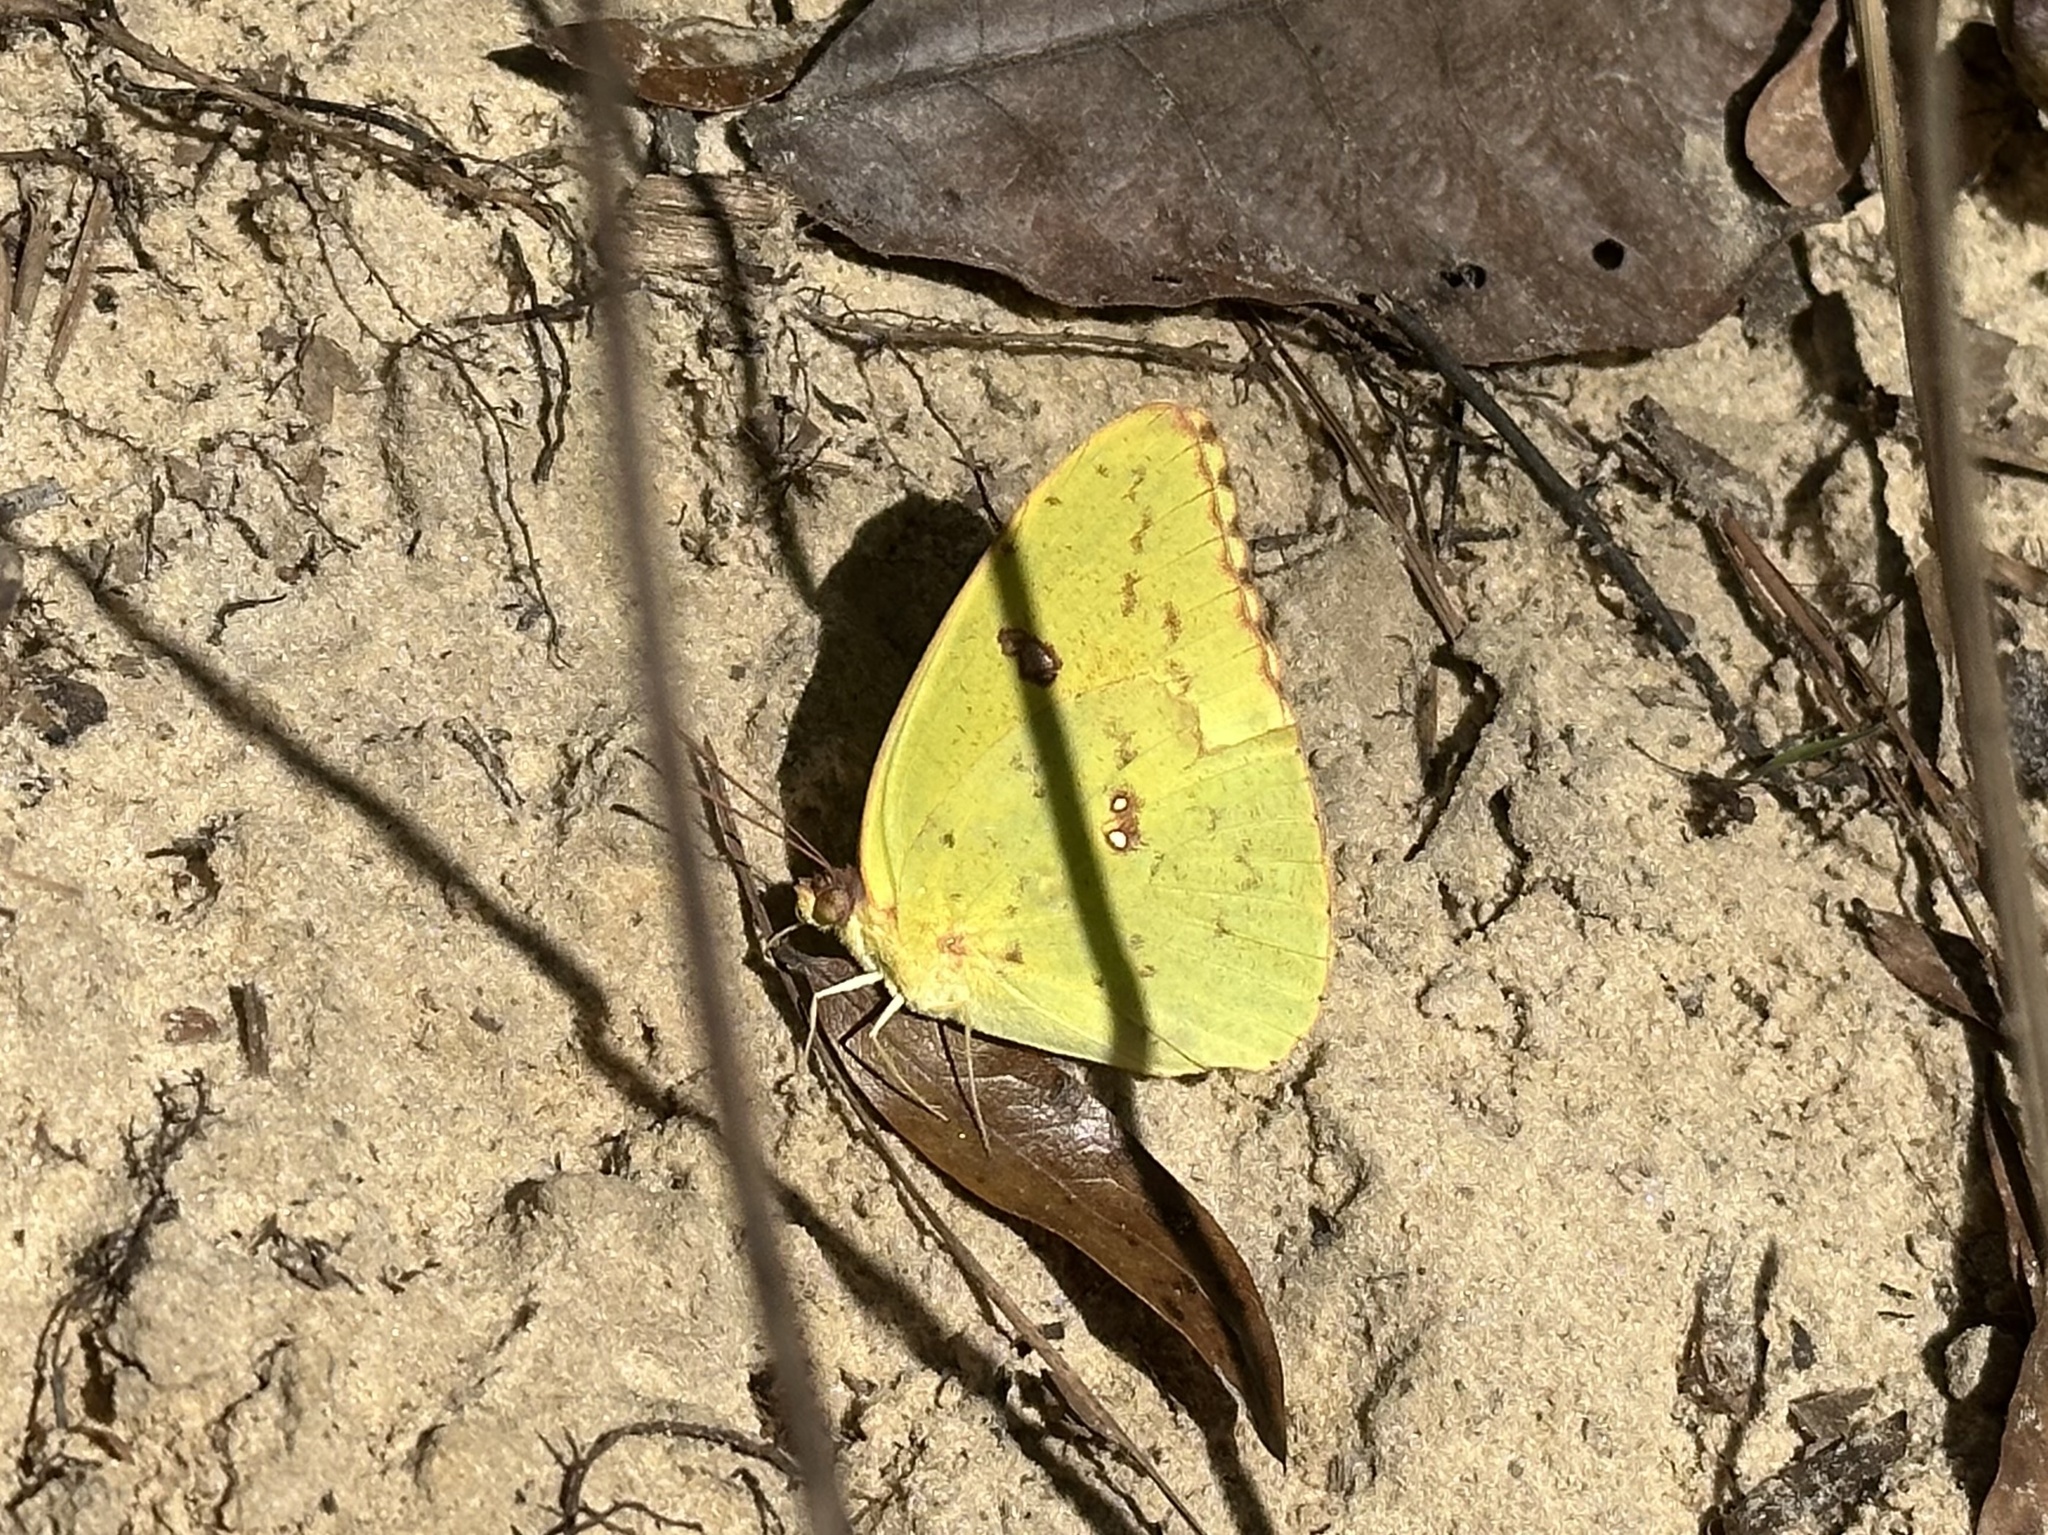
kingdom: Animalia
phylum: Arthropoda
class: Insecta
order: Lepidoptera
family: Pieridae
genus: Phoebis
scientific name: Phoebis sennae
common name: Cloudless sulphur
